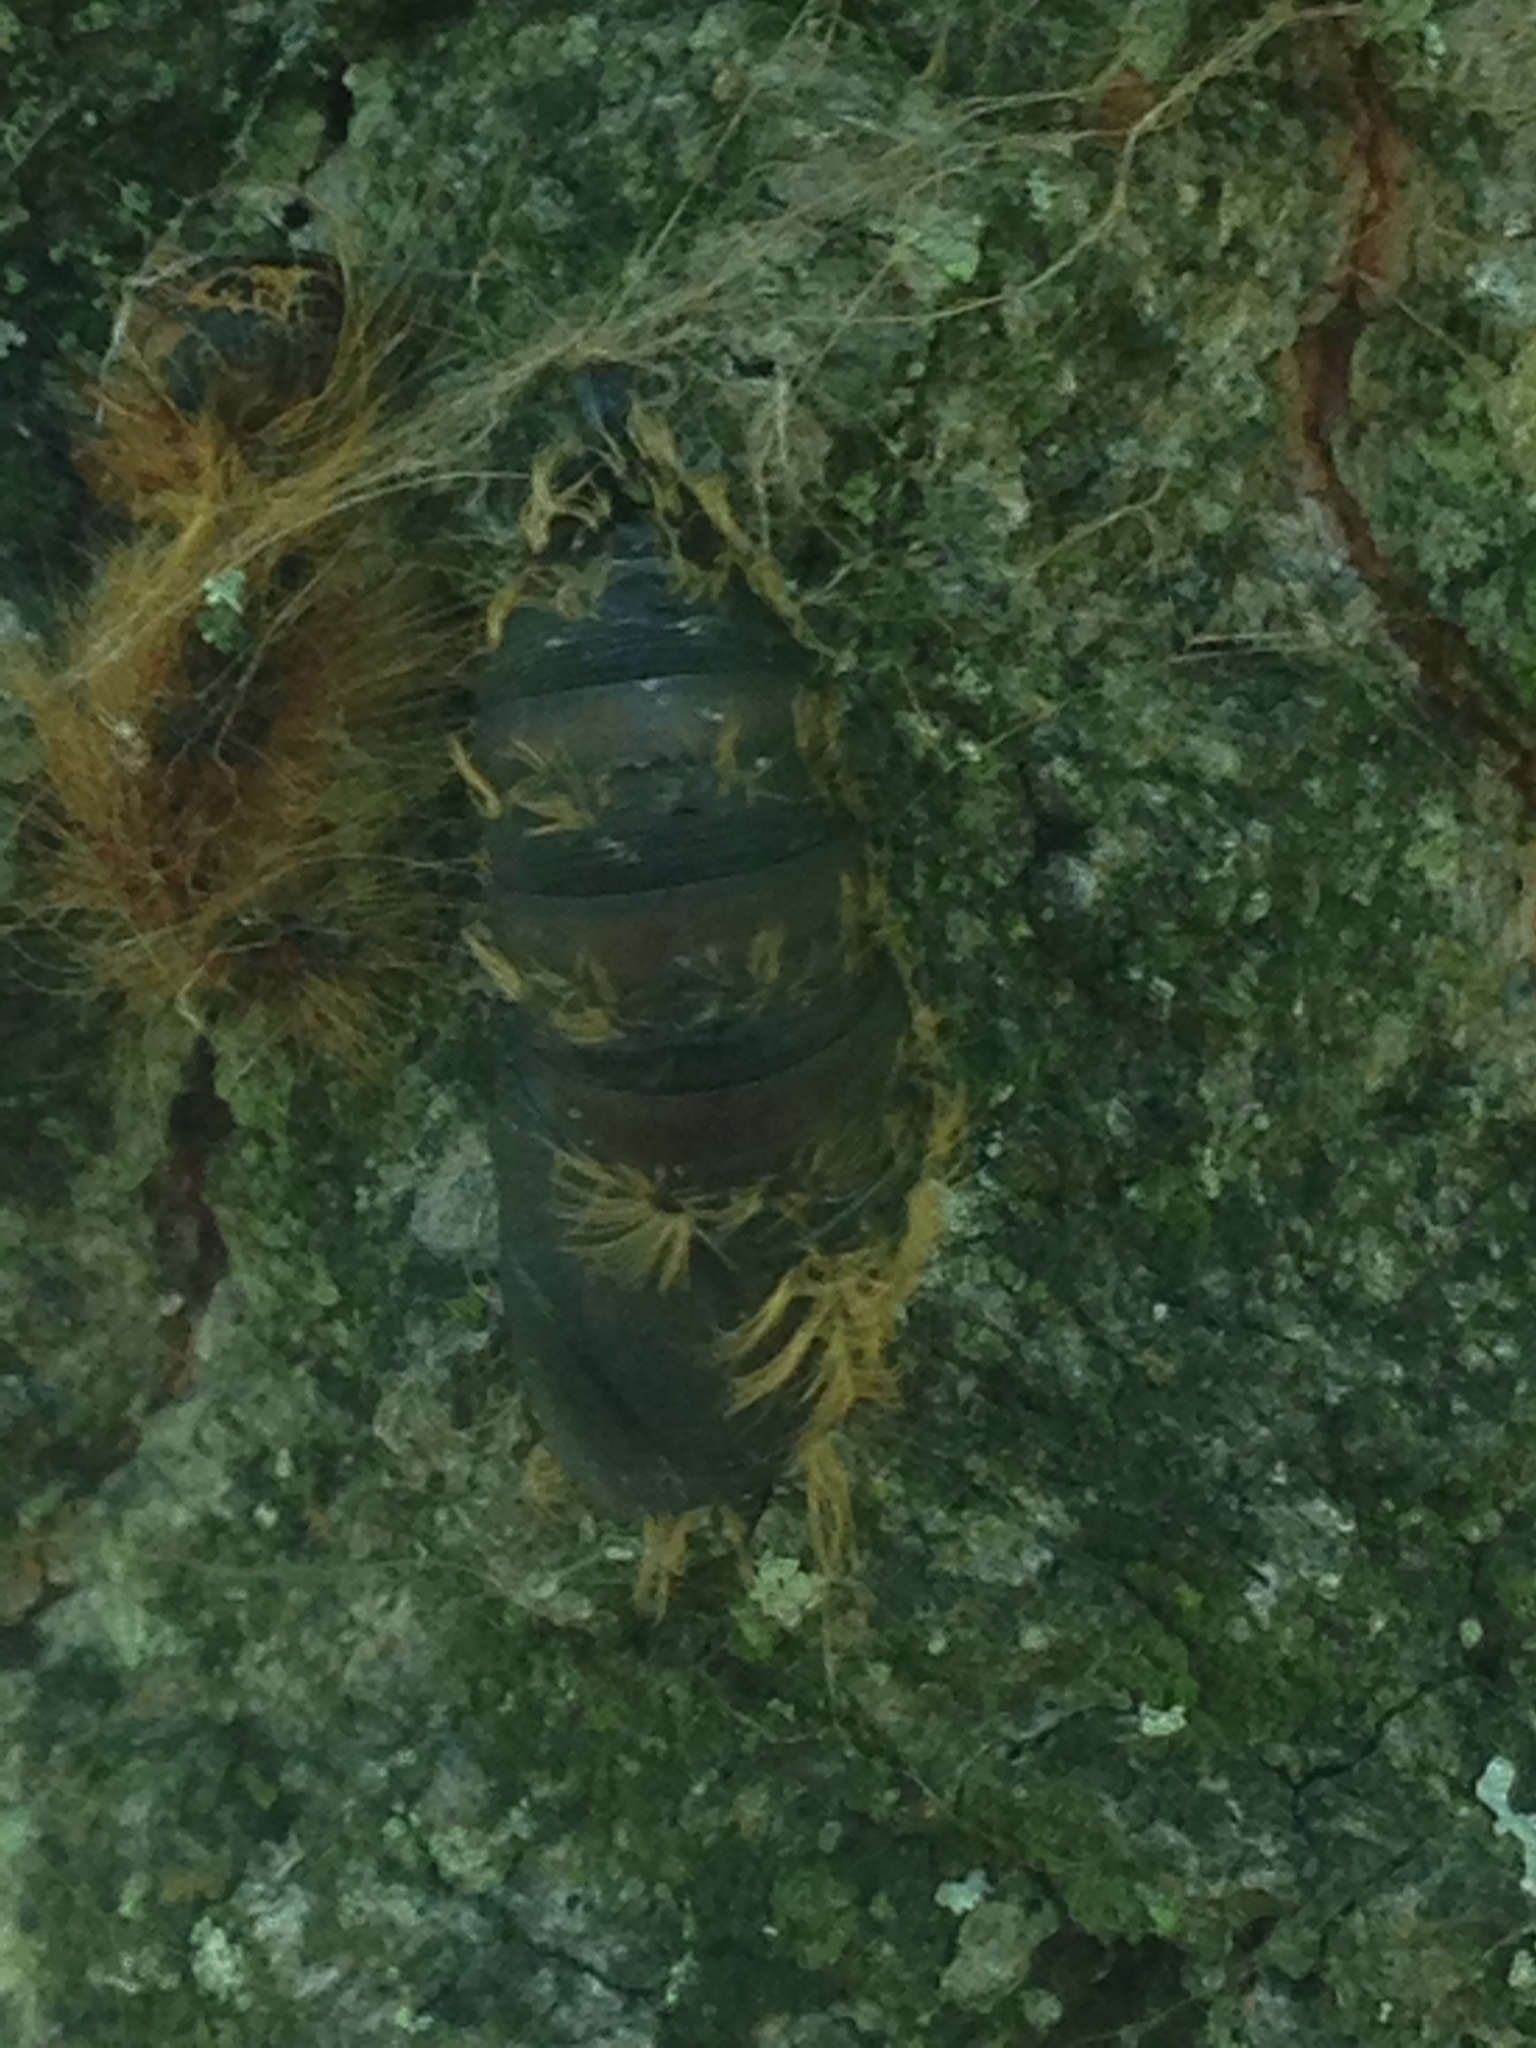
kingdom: Animalia
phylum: Arthropoda
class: Insecta
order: Lepidoptera
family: Erebidae
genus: Lymantria
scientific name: Lymantria dispar
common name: Gypsy moth
